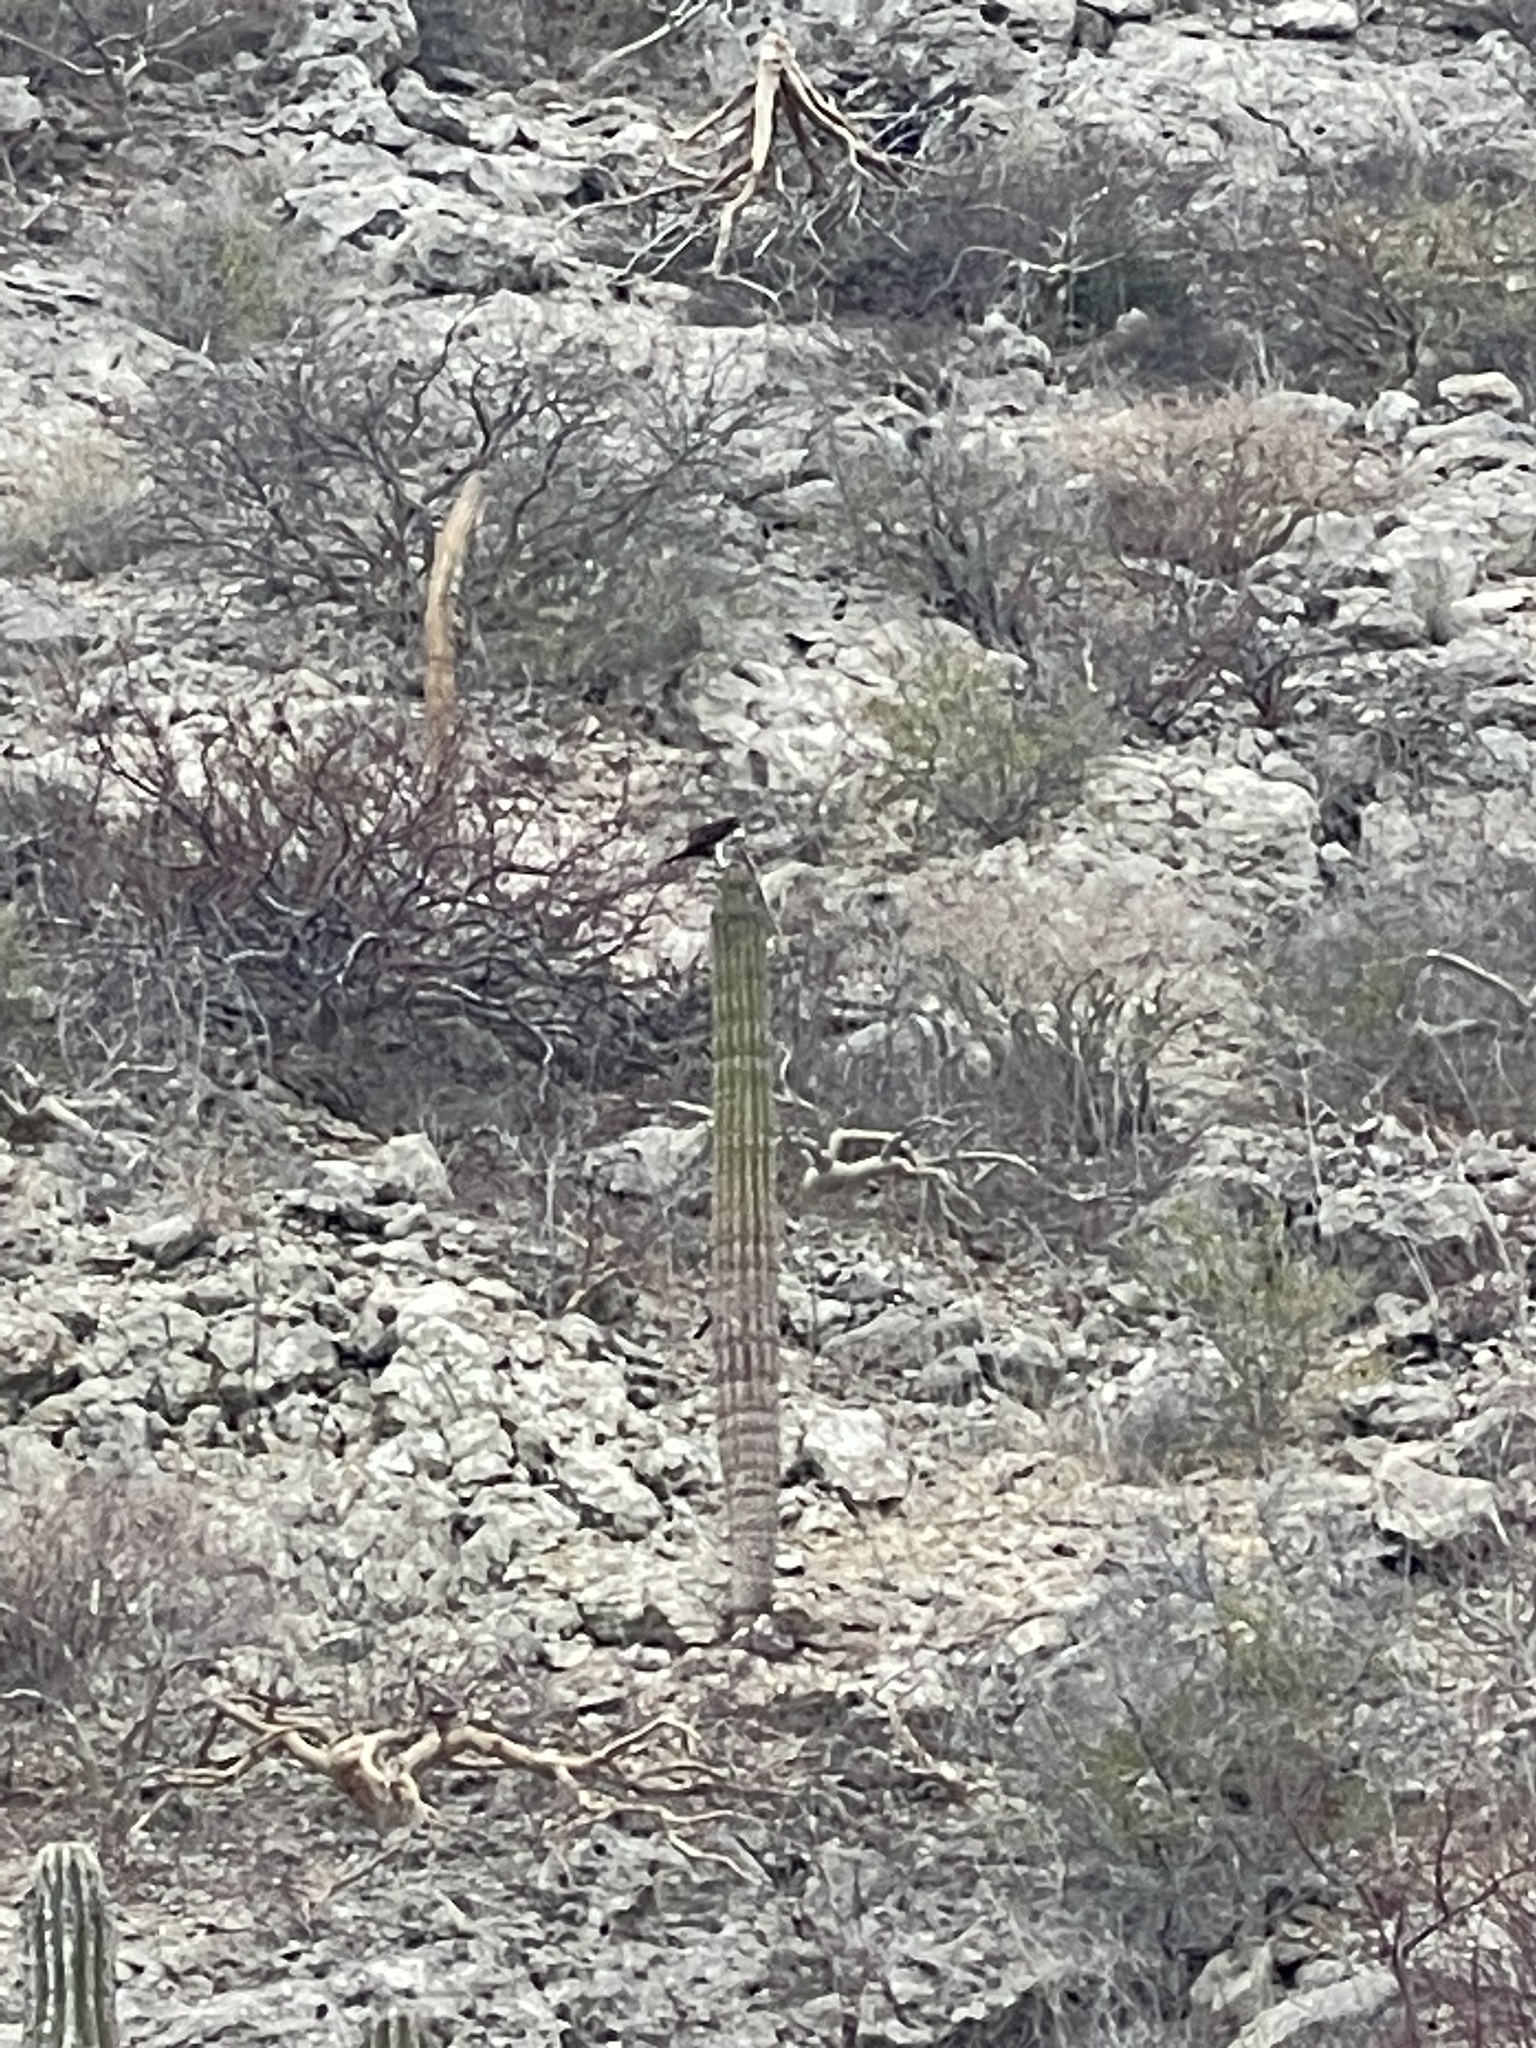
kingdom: Animalia
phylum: Chordata
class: Aves
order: Accipitriformes
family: Pandionidae
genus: Pandion
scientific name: Pandion haliaetus
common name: Osprey
